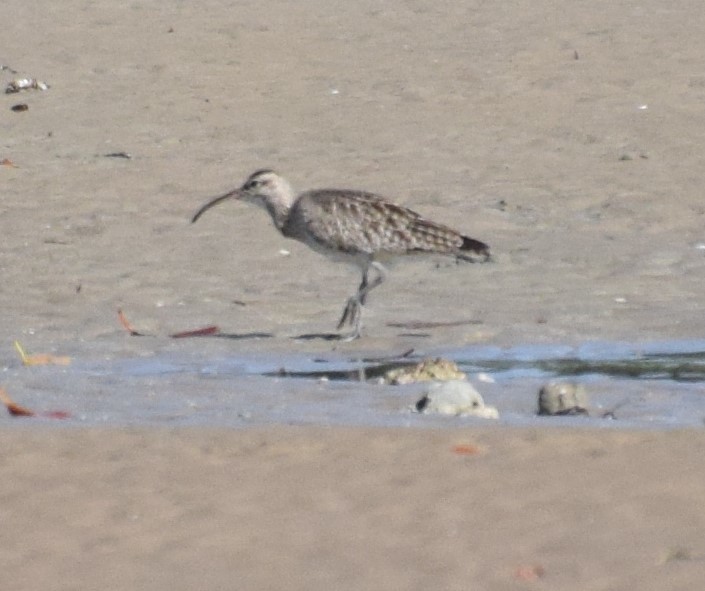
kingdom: Animalia
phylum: Chordata
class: Aves
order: Charadriiformes
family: Scolopacidae
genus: Numenius
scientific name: Numenius phaeopus
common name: Whimbrel
